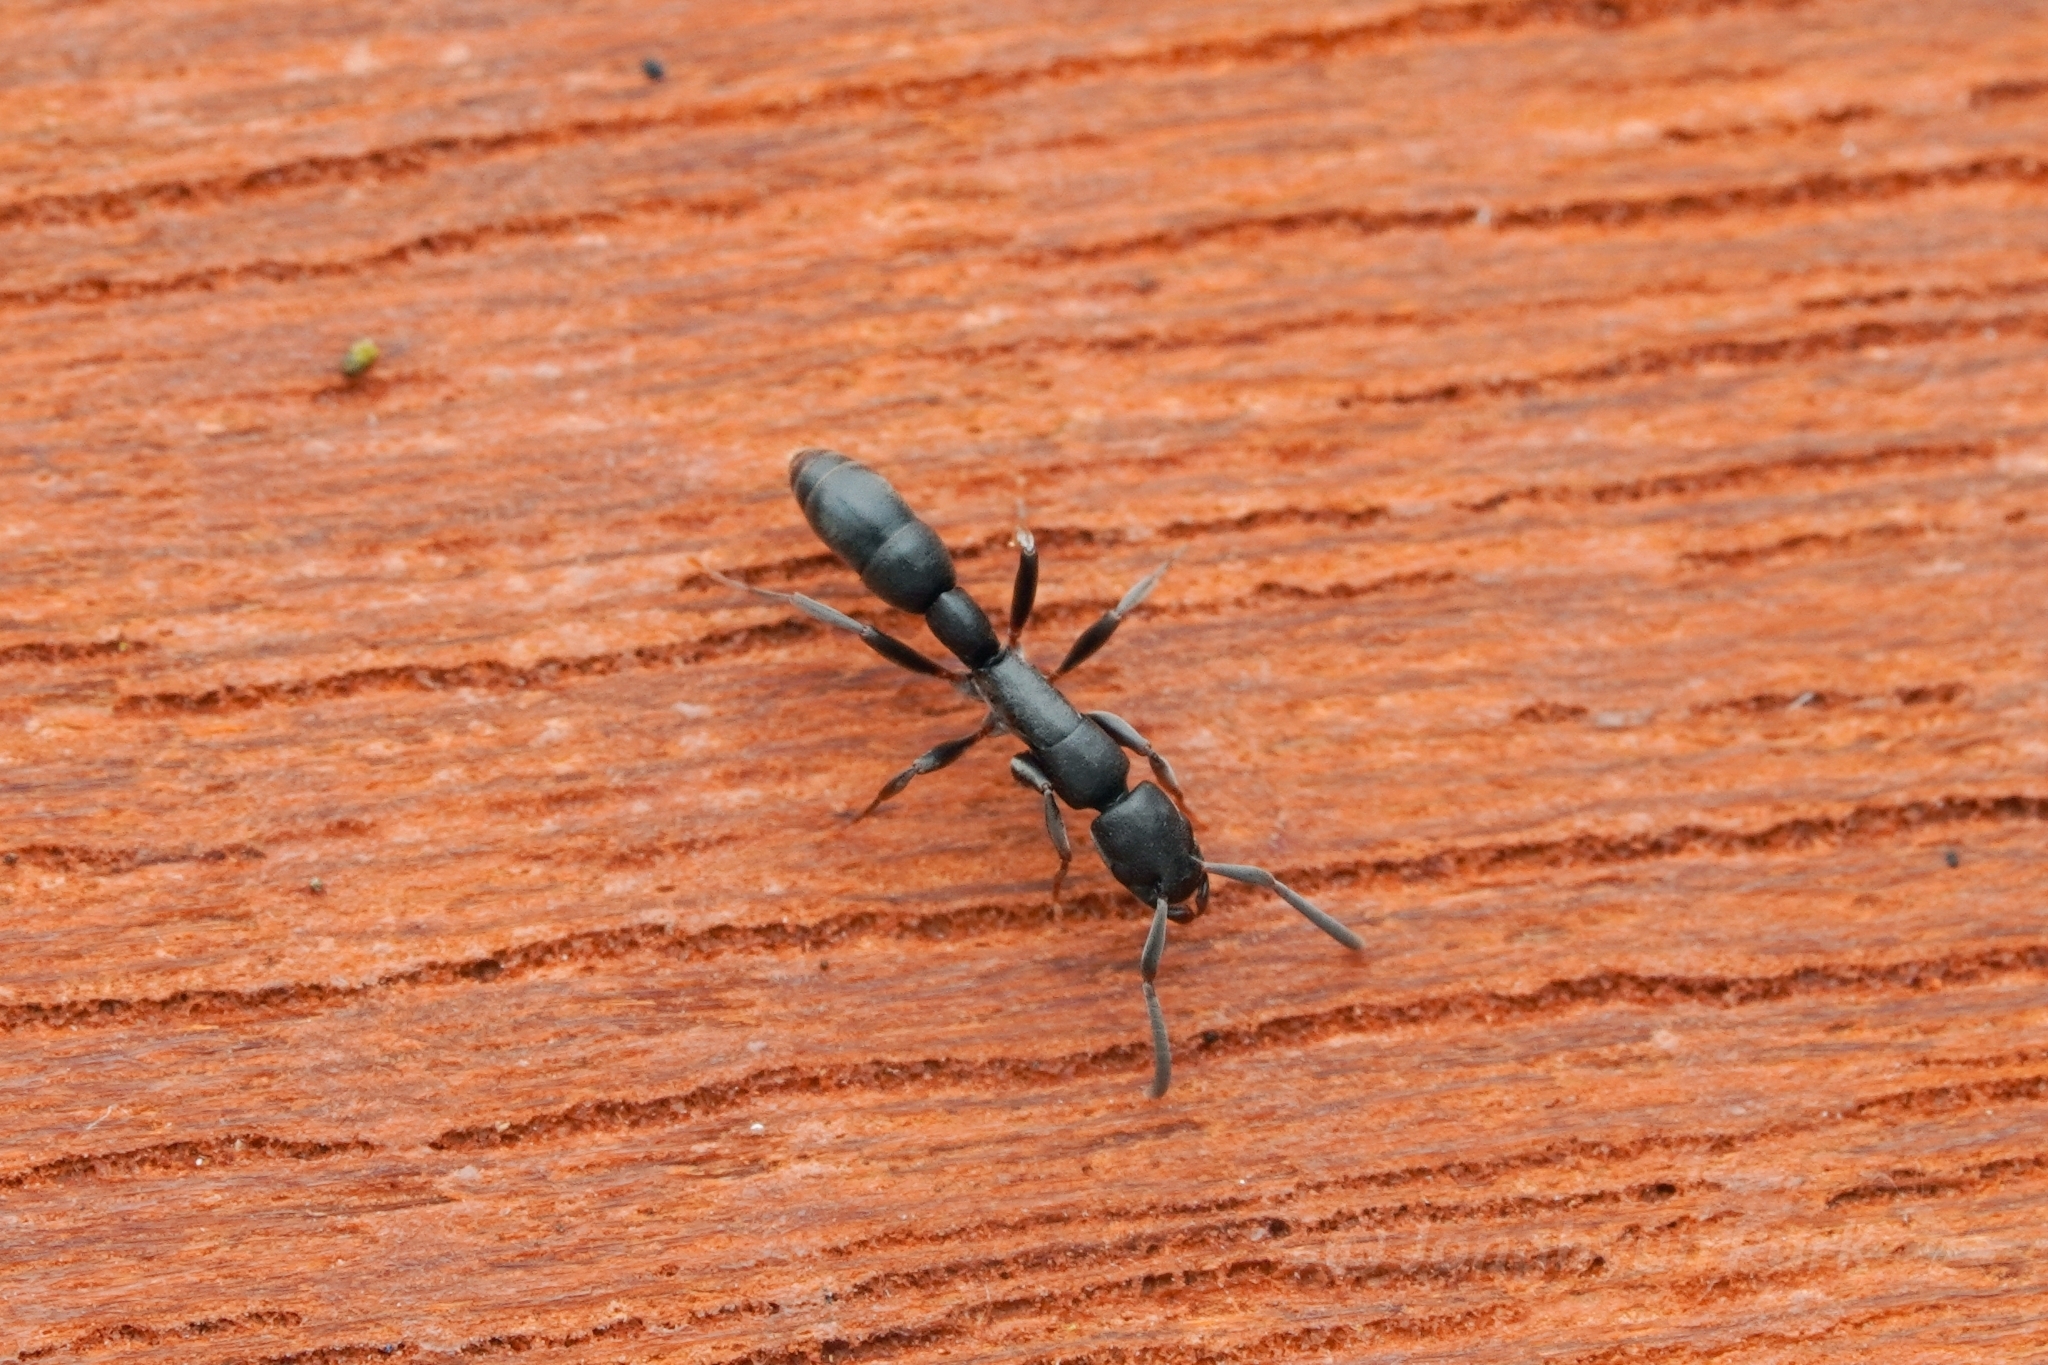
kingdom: Animalia
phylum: Arthropoda
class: Insecta
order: Hymenoptera
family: Formicidae
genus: Platythyrea
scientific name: Platythyrea parallela
